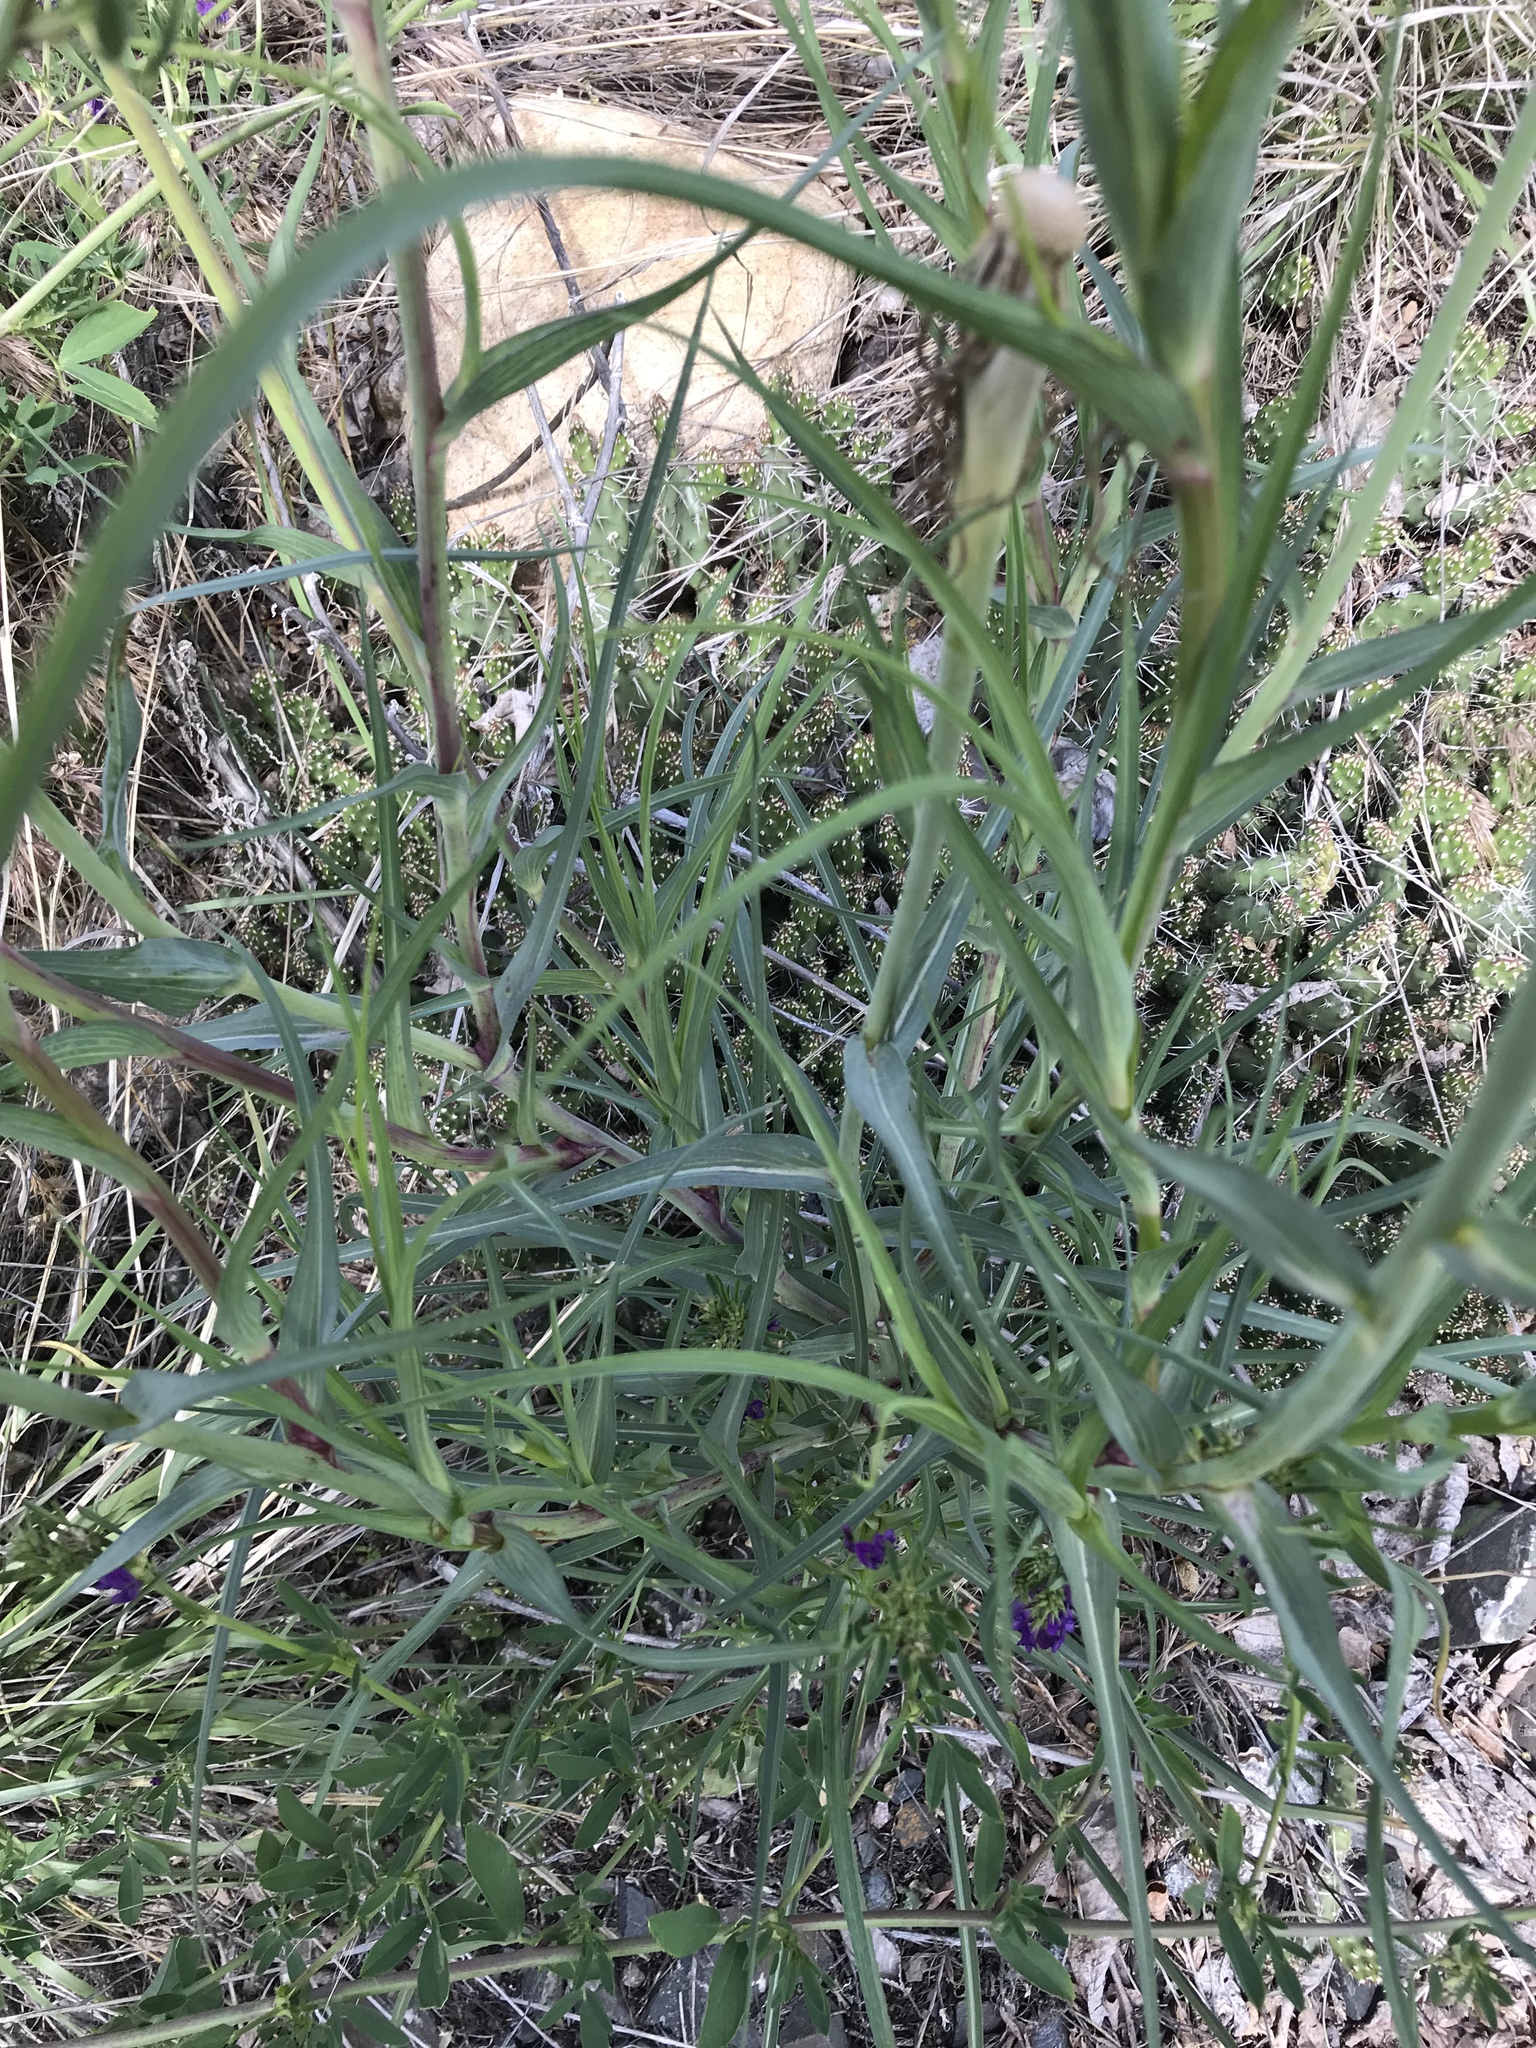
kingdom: Plantae
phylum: Tracheophyta
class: Magnoliopsida
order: Asterales
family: Asteraceae
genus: Tragopogon
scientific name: Tragopogon dubius
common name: Yellow salsify
